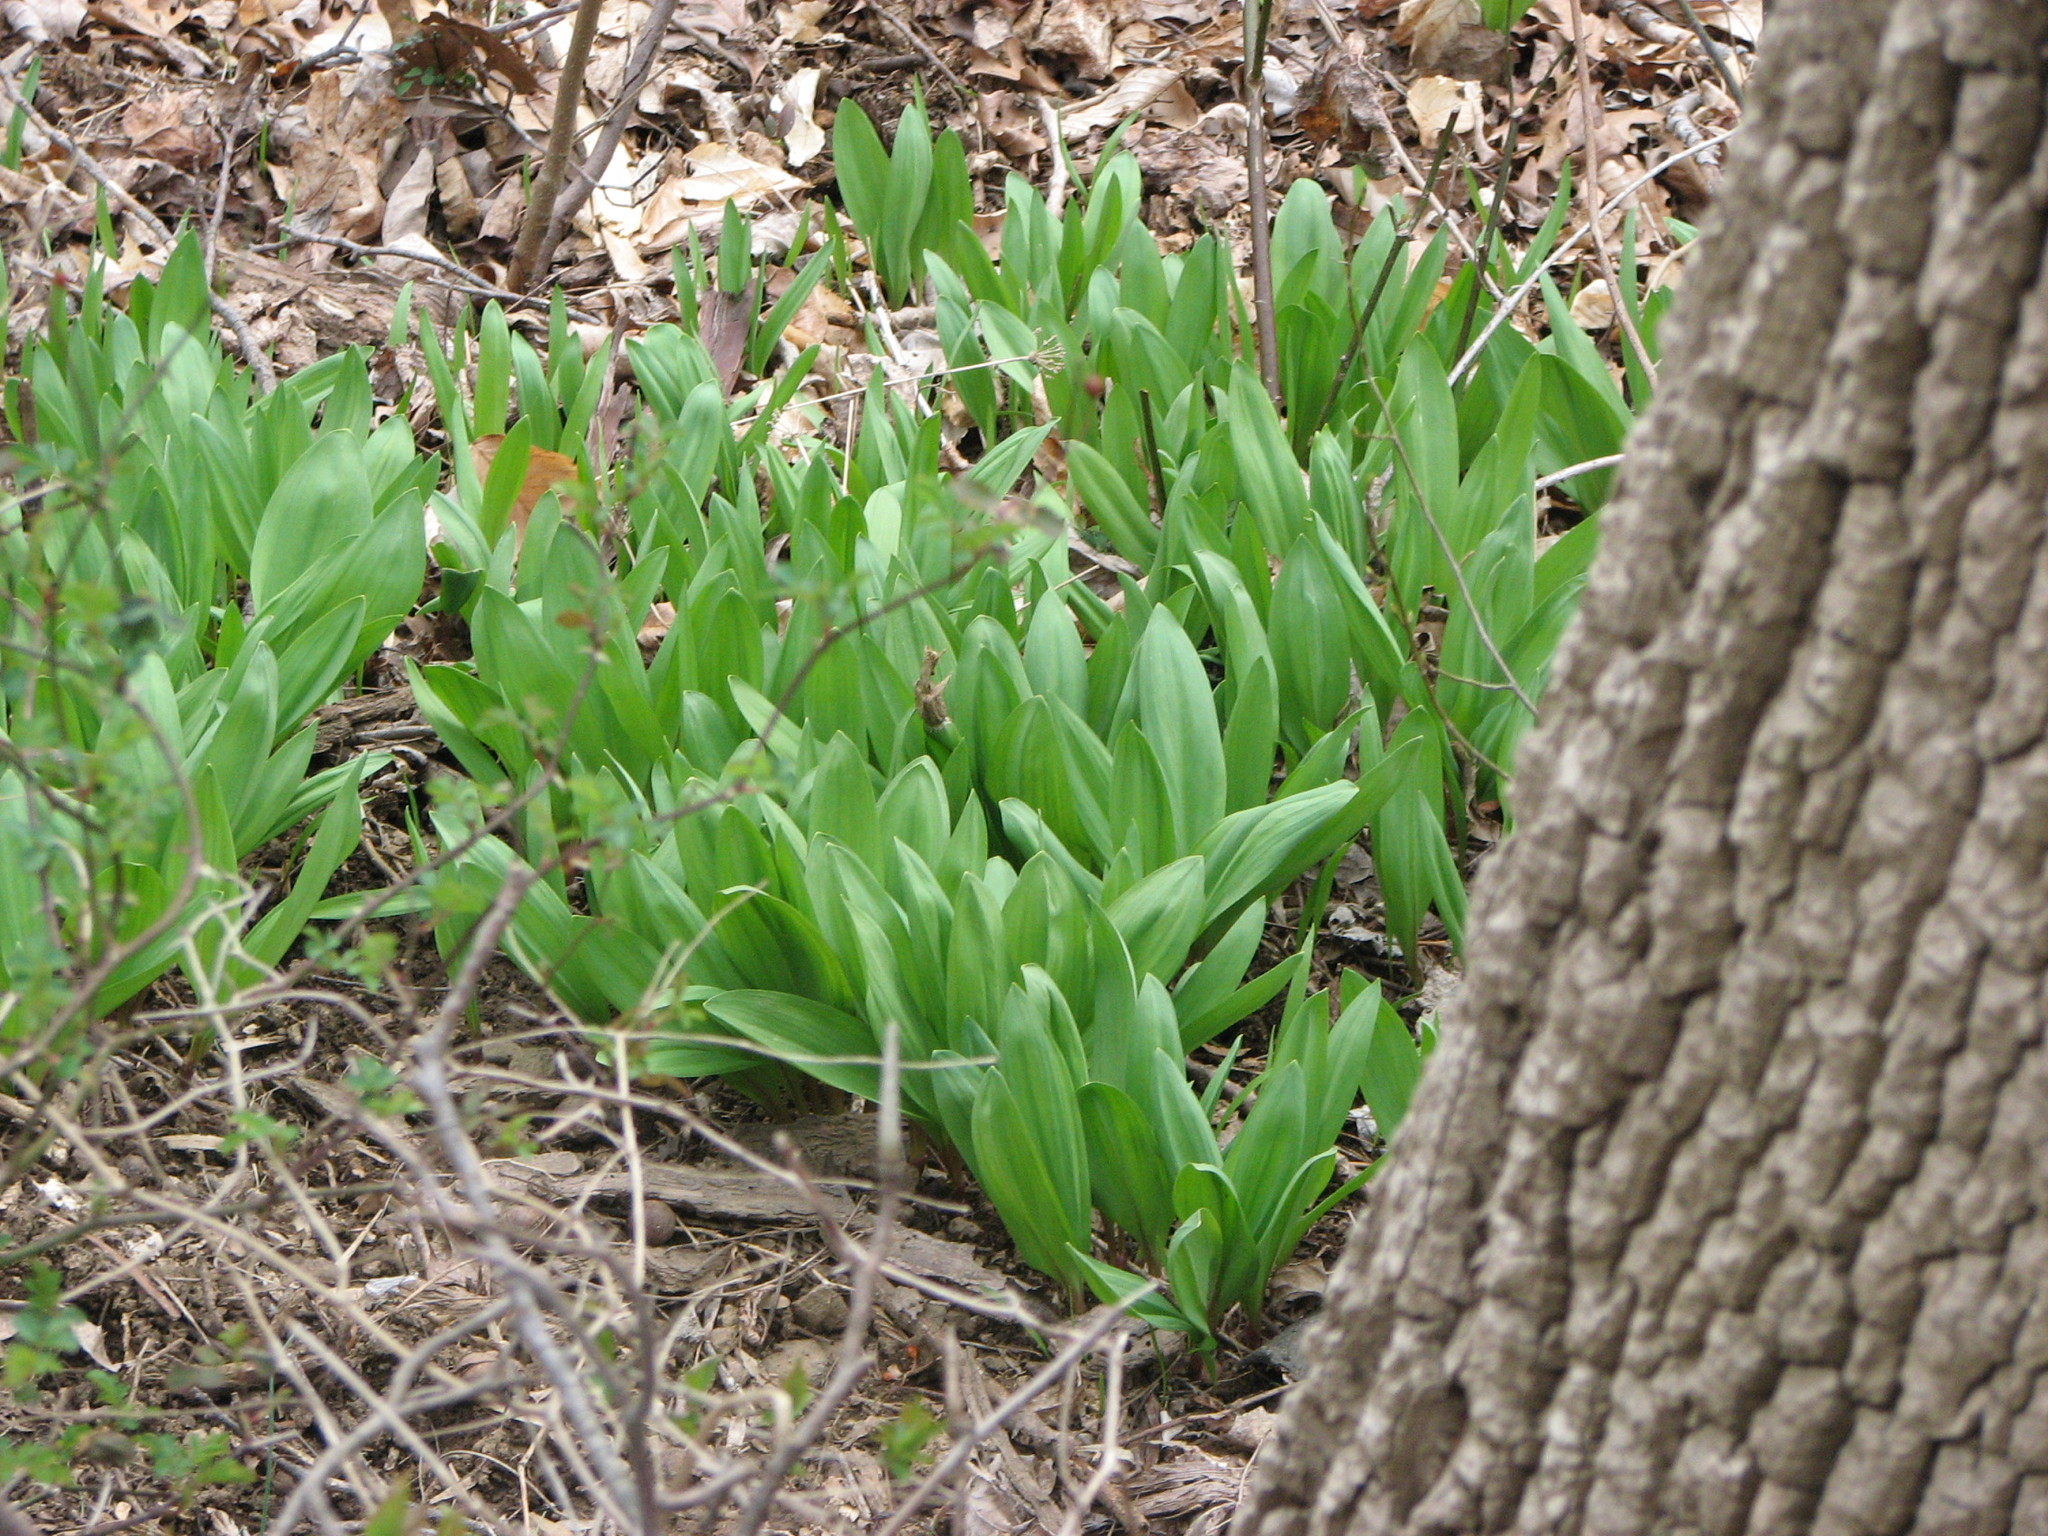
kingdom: Plantae
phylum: Tracheophyta
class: Liliopsida
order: Asparagales
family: Amaryllidaceae
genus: Allium
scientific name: Allium tricoccum
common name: Ramp
